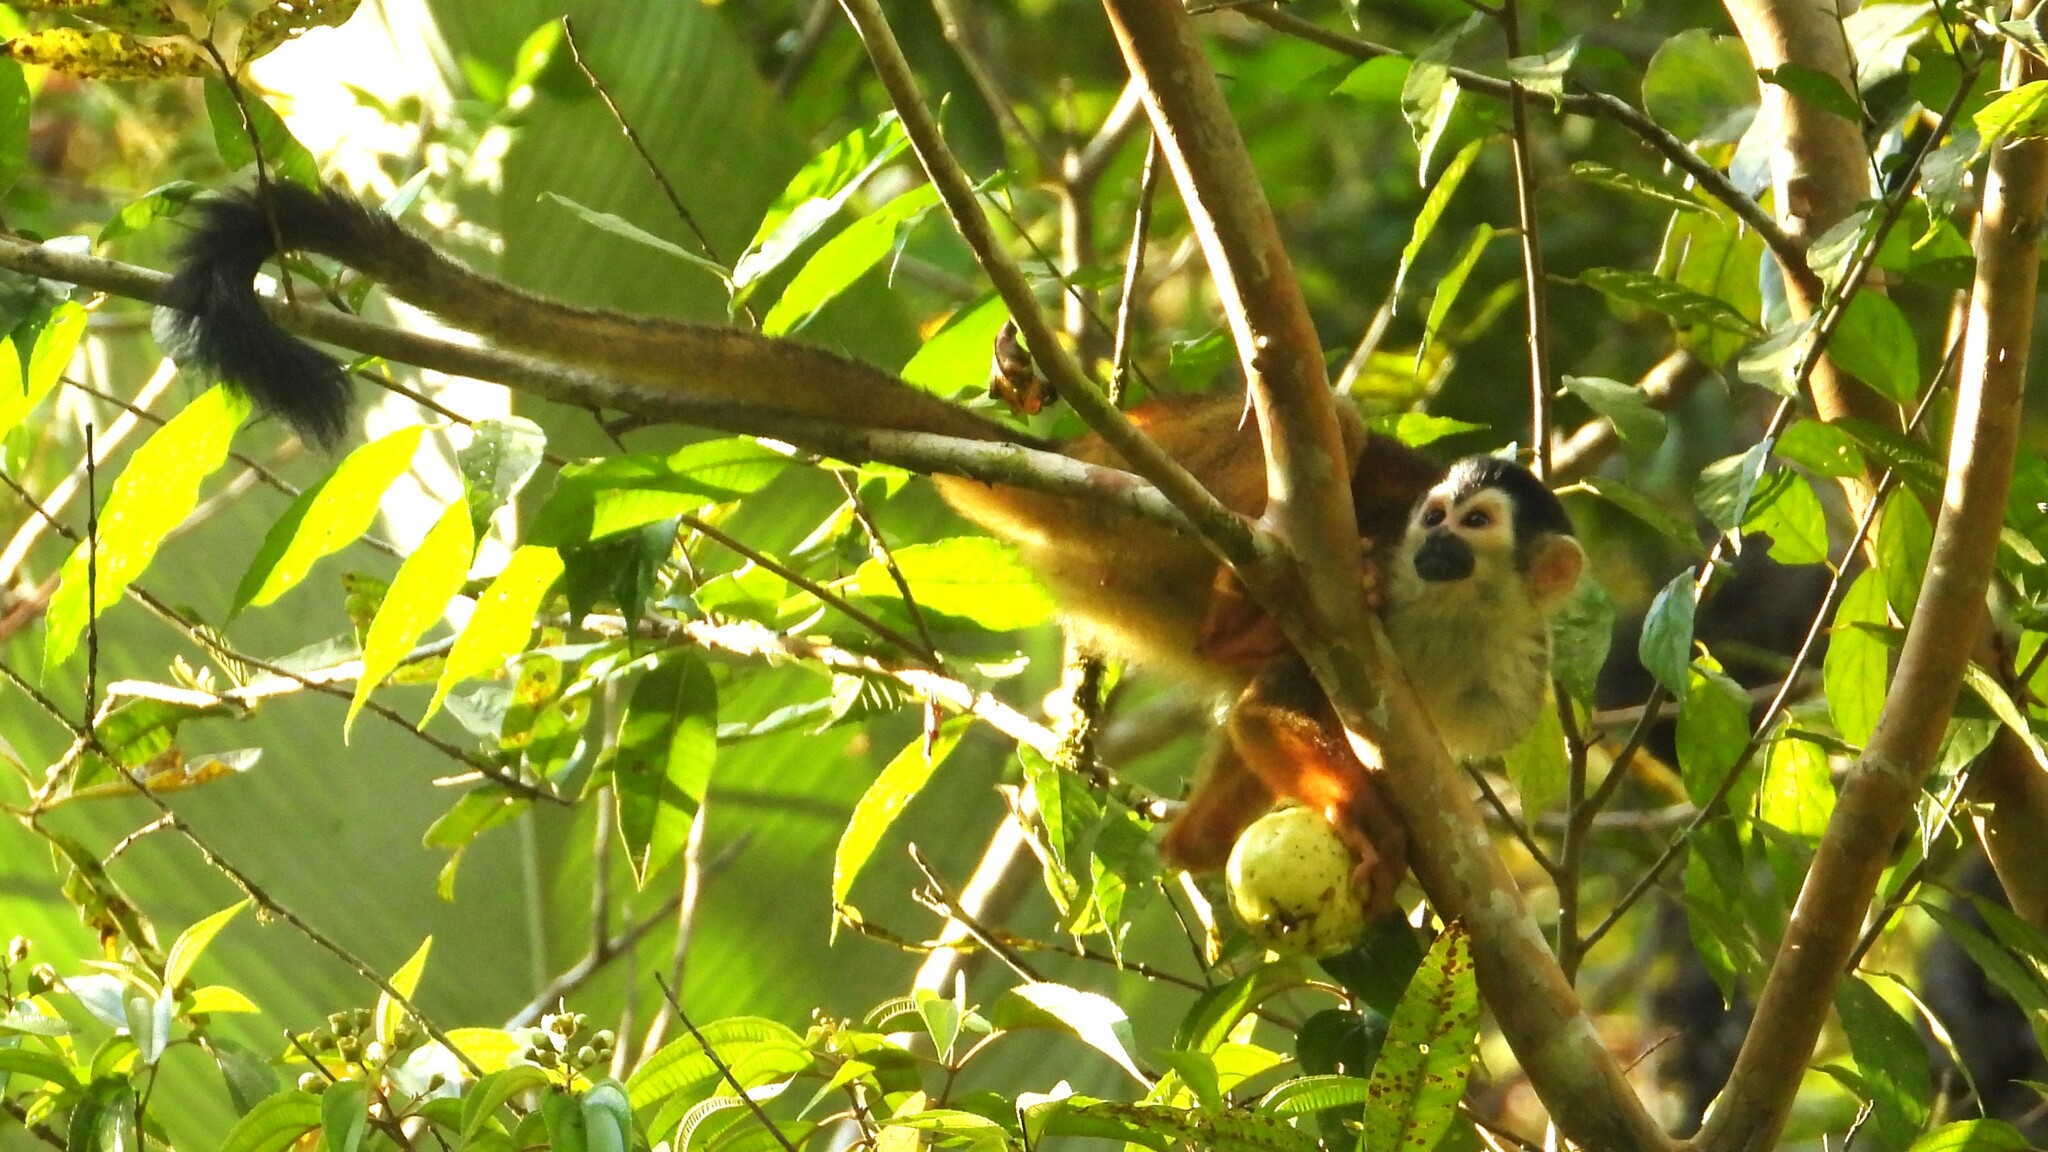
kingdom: Animalia
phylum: Chordata
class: Mammalia
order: Primates
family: Cebidae
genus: Saimiri
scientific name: Saimiri oerstedii
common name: Central american squirrel monkey
